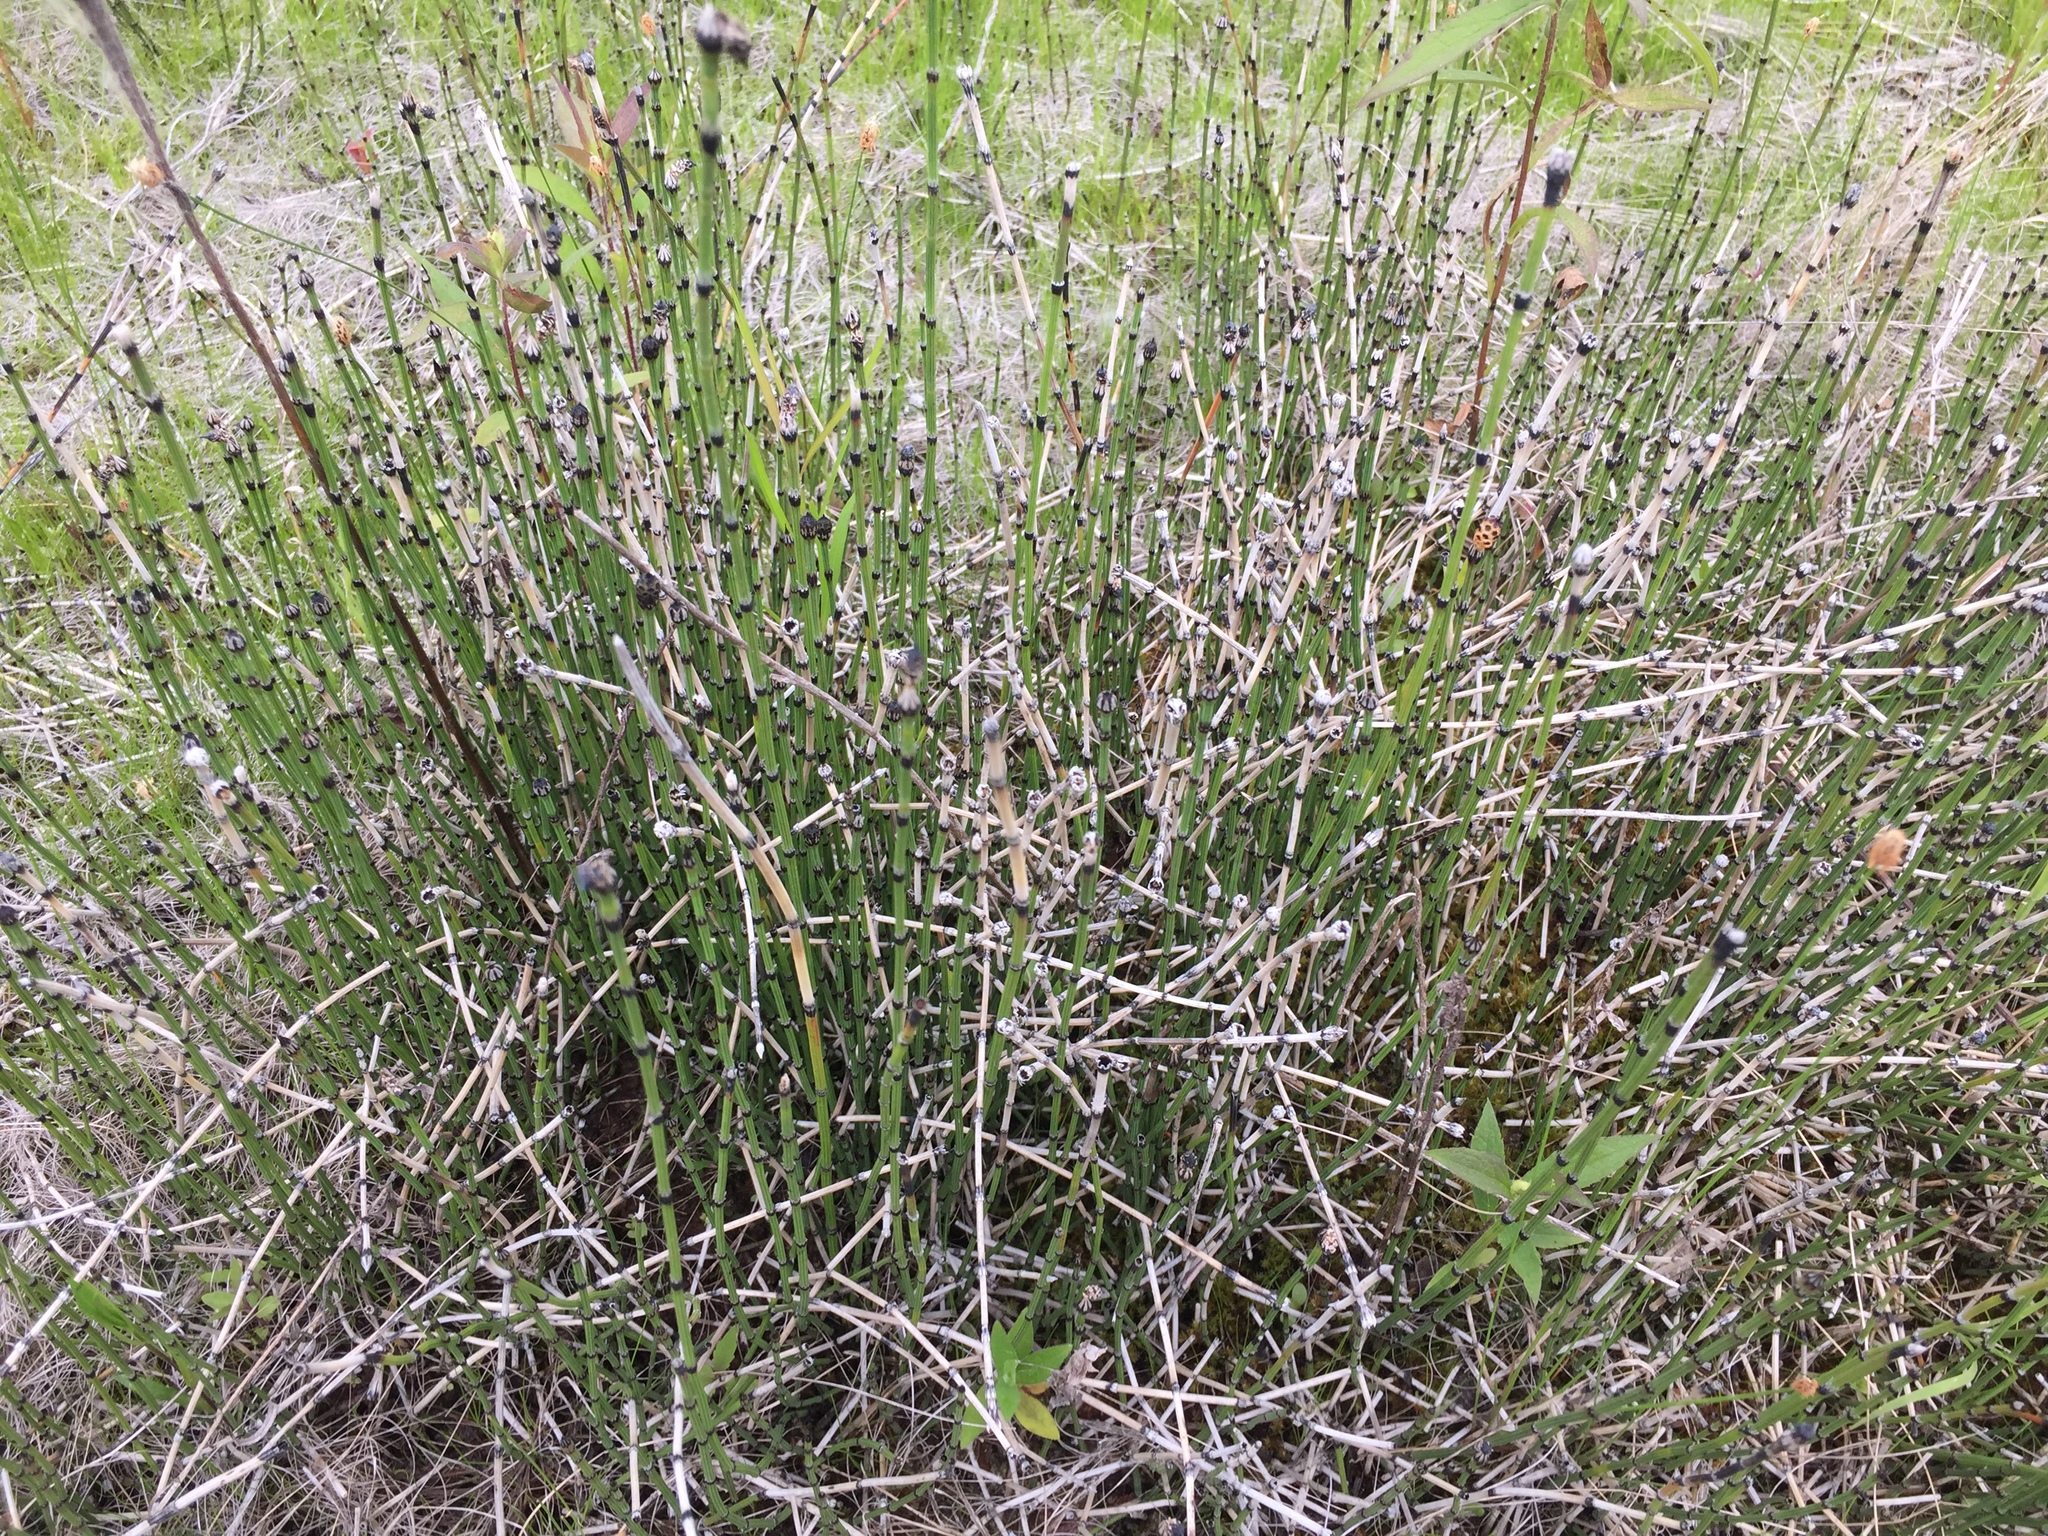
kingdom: Plantae
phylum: Tracheophyta
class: Polypodiopsida
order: Equisetales
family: Equisetaceae
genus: Equisetum
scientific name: Equisetum variegatum
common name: Variegated horsetail
